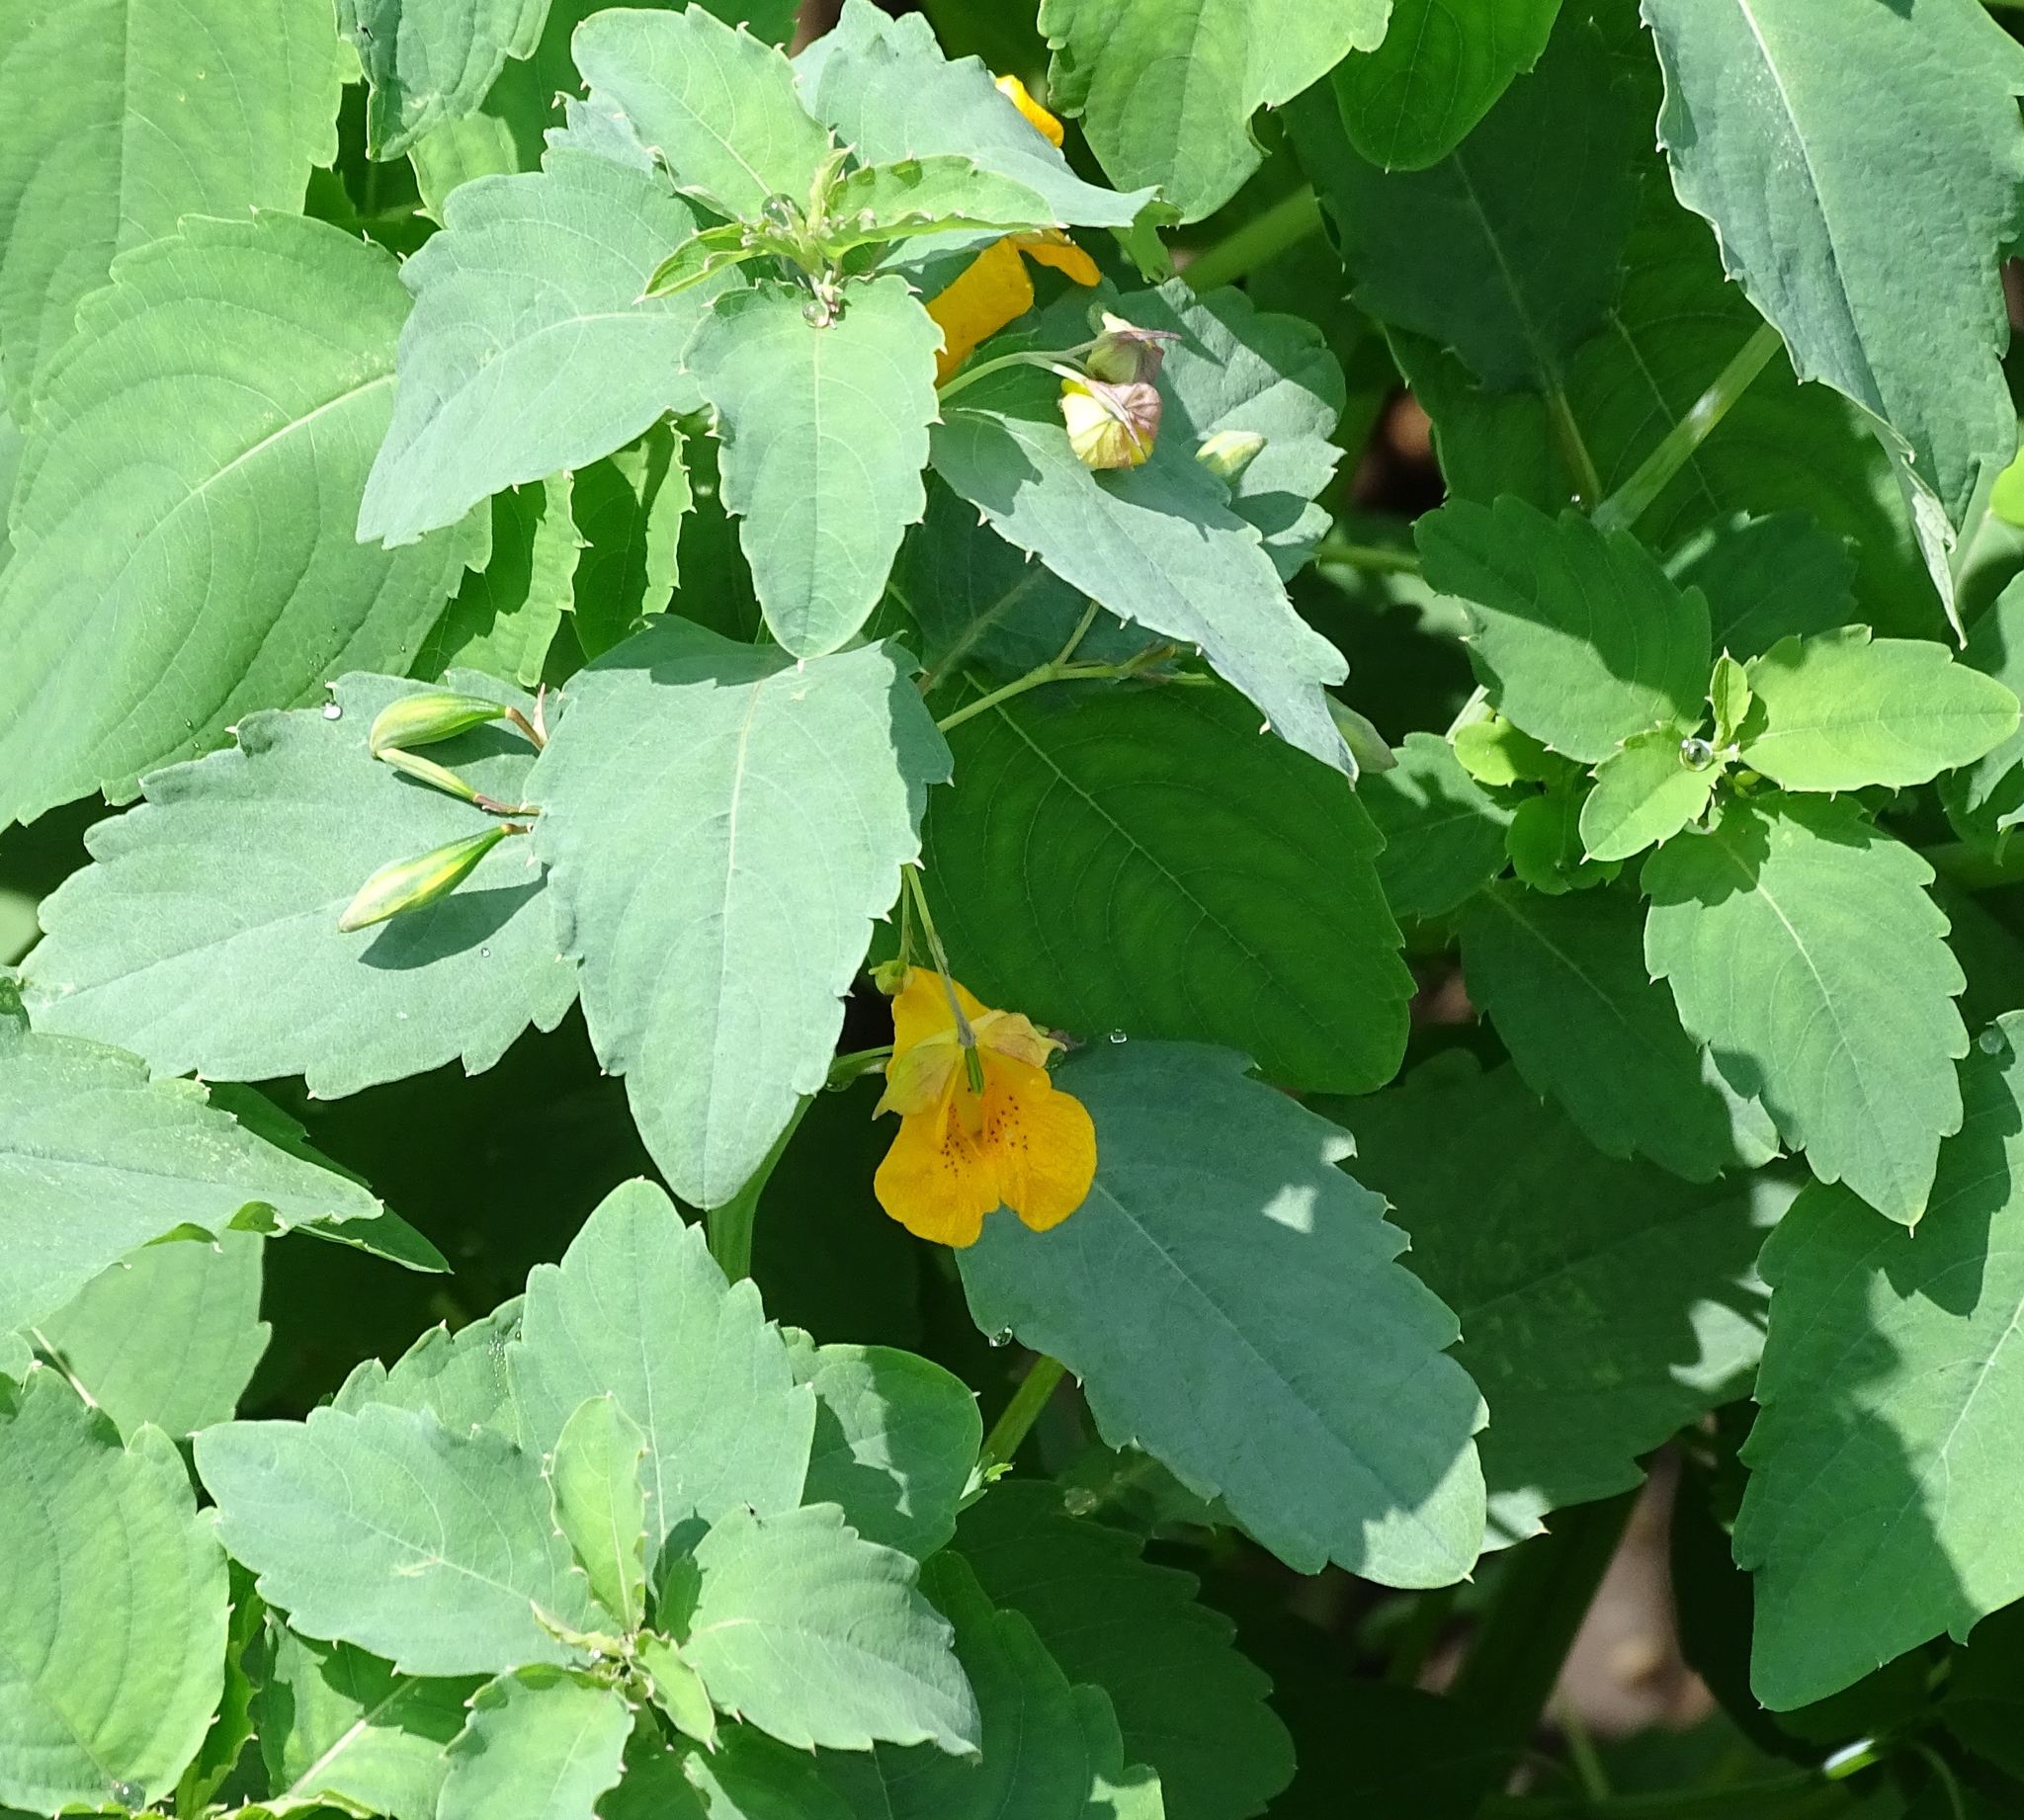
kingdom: Plantae
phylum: Tracheophyta
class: Magnoliopsida
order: Ericales
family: Balsaminaceae
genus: Impatiens
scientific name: Impatiens capensis
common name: Orange balsam
